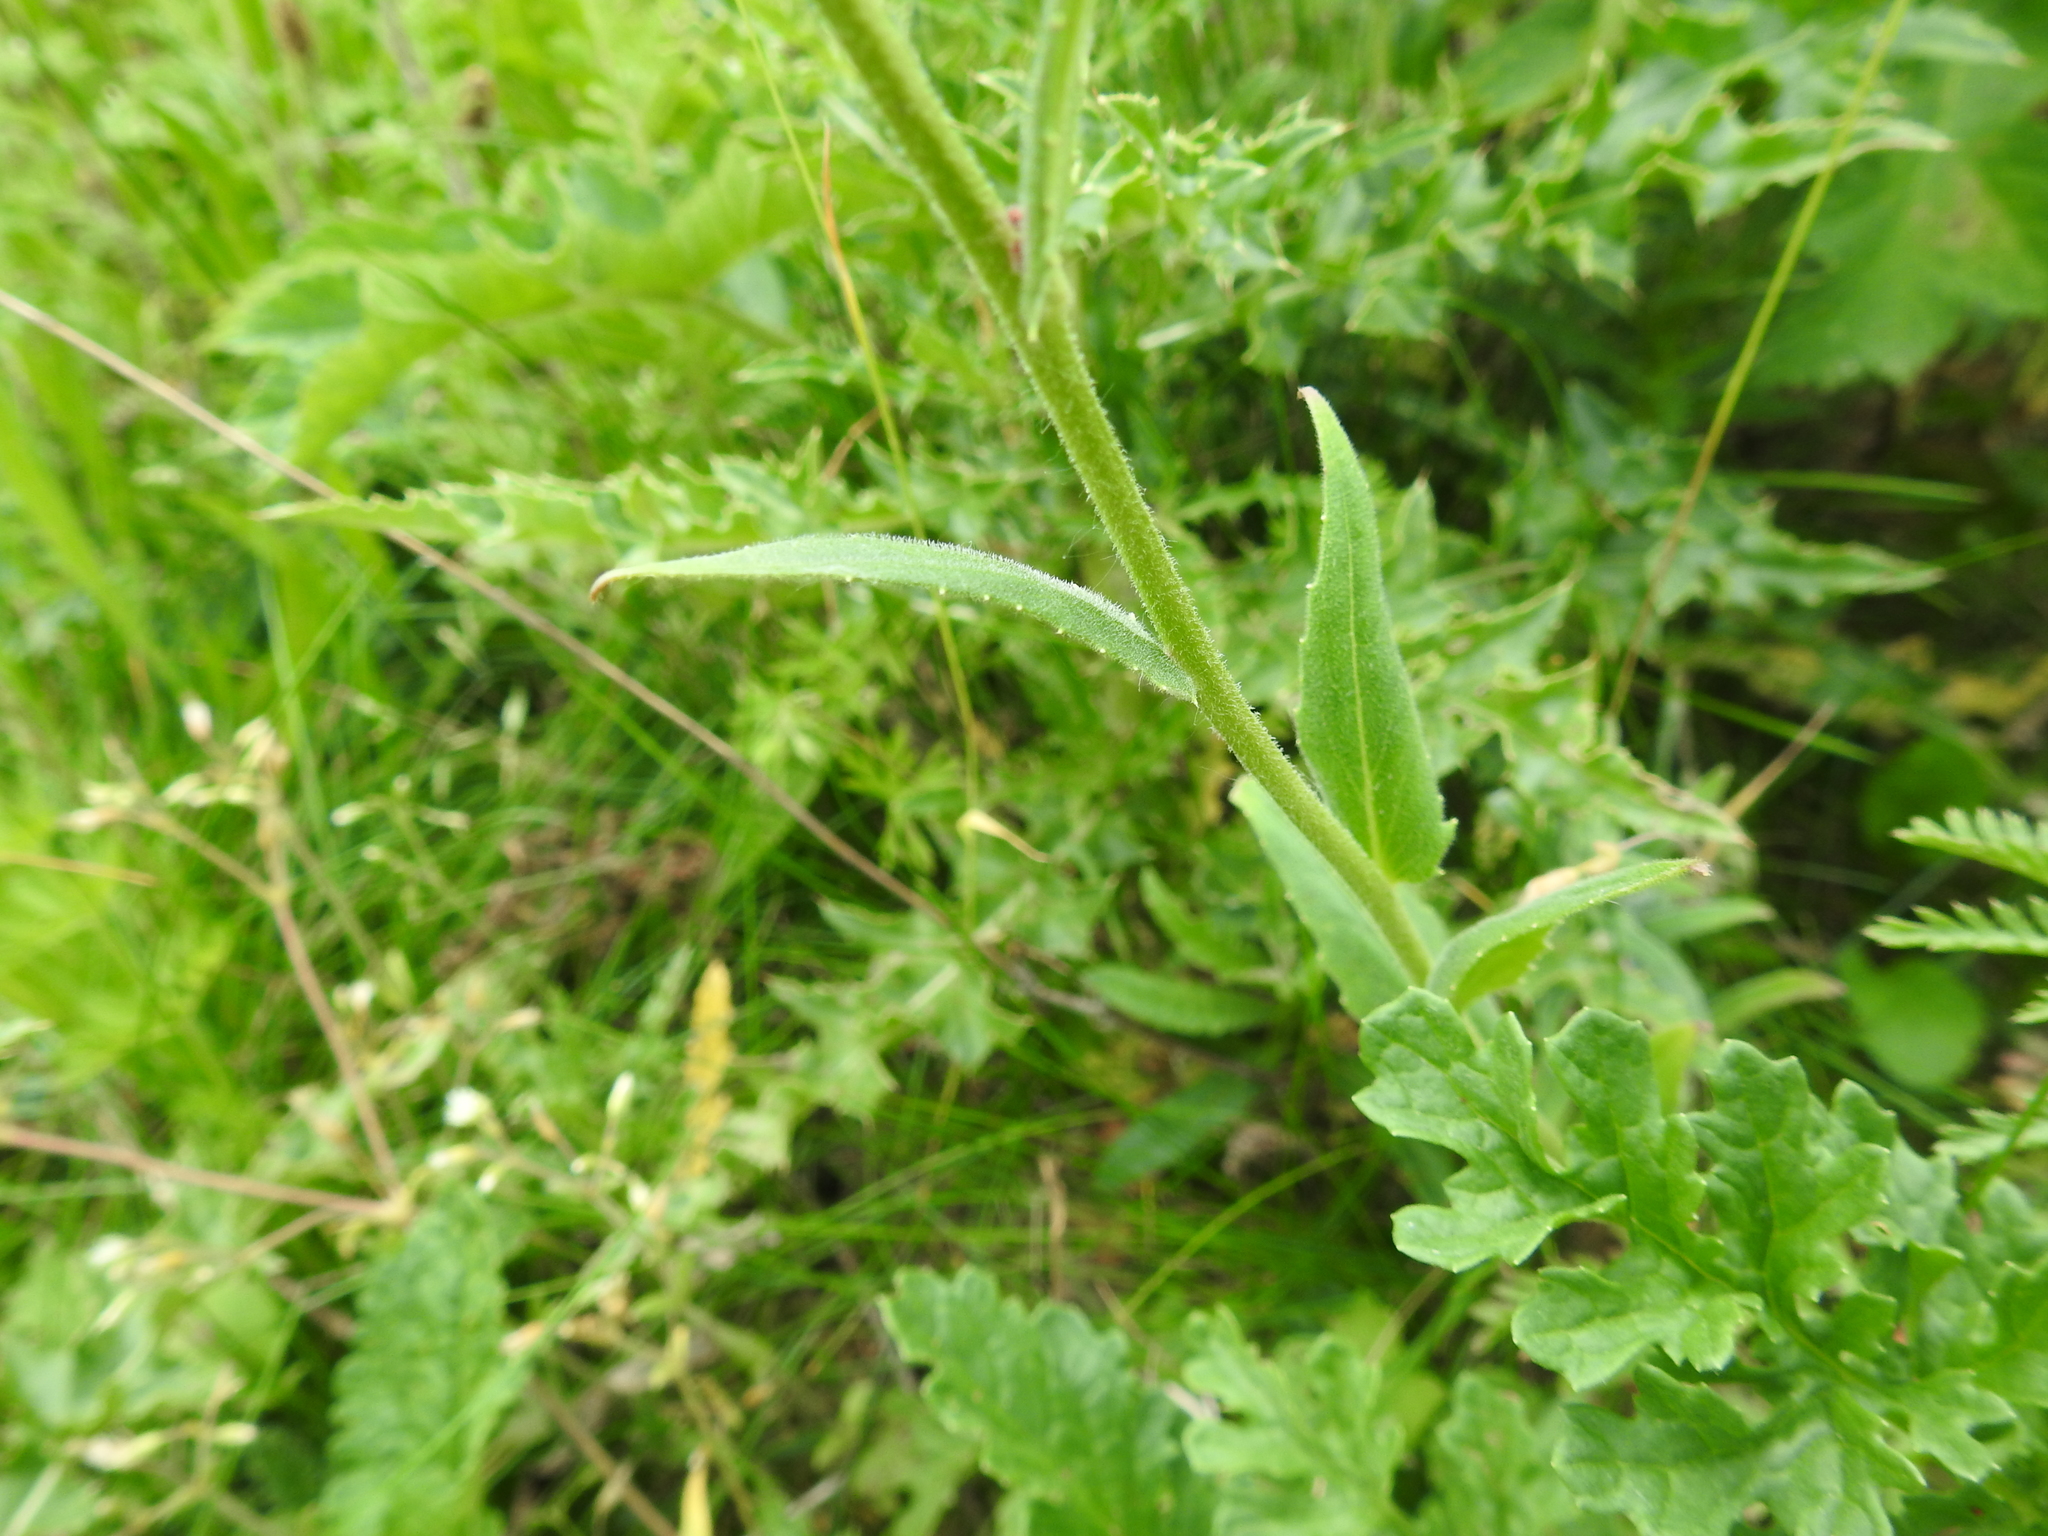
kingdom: Plantae
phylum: Tracheophyta
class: Magnoliopsida
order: Brassicales
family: Brassicaceae
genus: Hesperis
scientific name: Hesperis matronalis
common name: Dame's-violet
